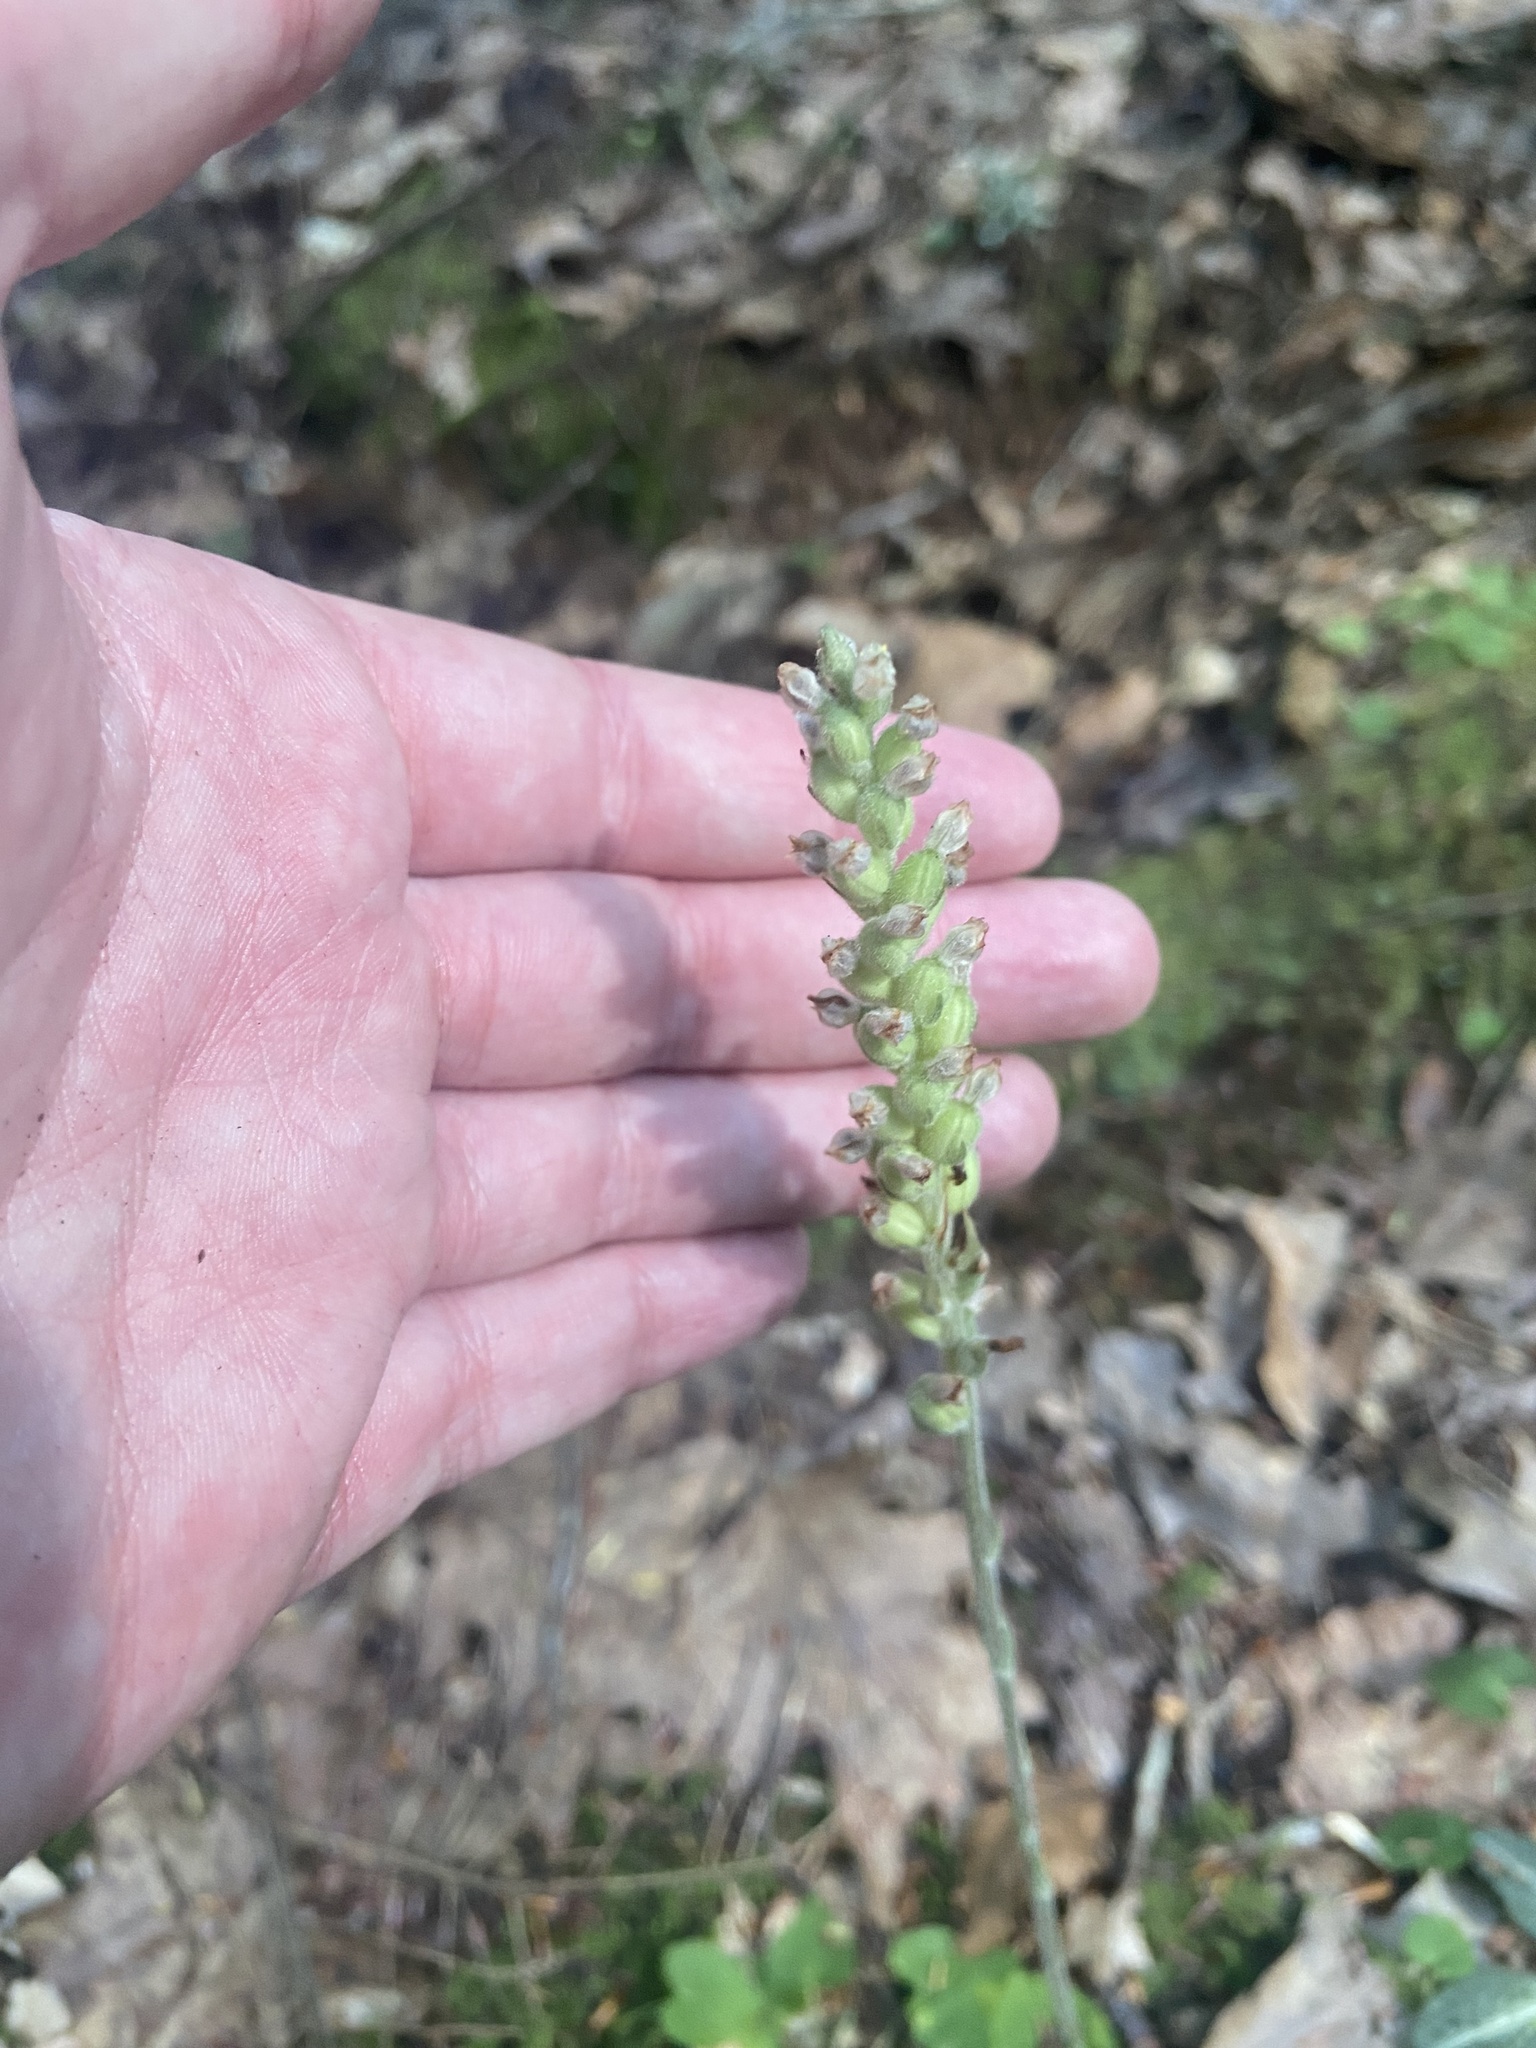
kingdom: Plantae
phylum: Tracheophyta
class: Liliopsida
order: Asparagales
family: Orchidaceae
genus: Goodyera
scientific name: Goodyera pubescens
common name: Downy rattlesnake-plantain
